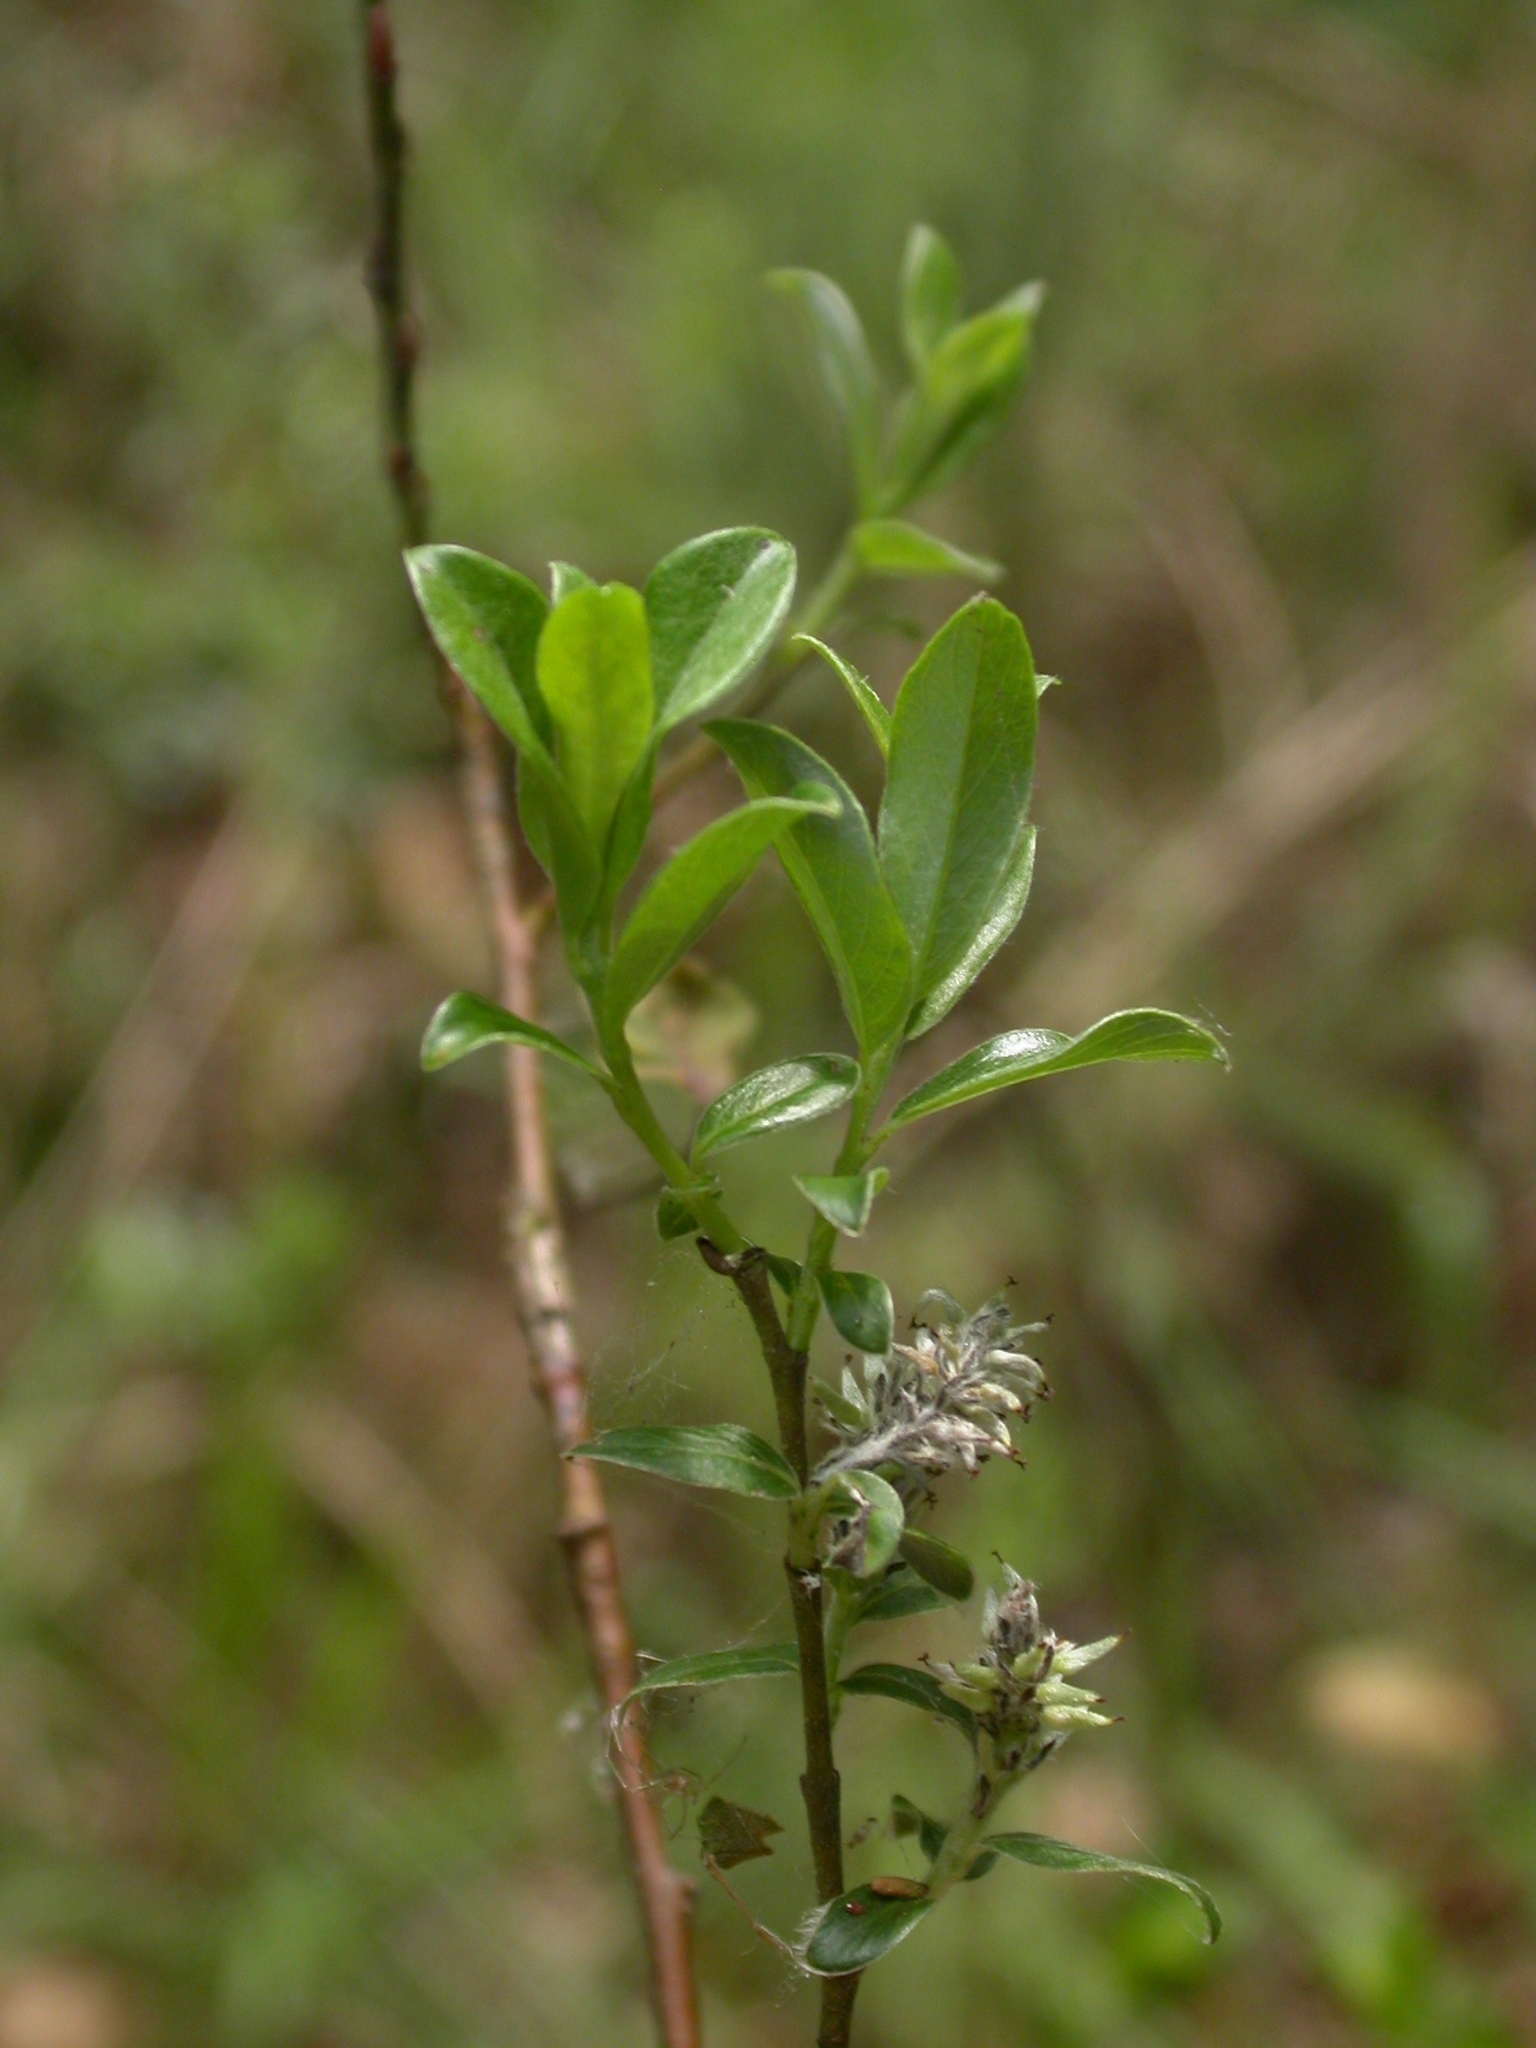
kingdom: Plantae
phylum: Tracheophyta
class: Magnoliopsida
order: Malpighiales
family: Salicaceae
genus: Salix
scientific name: Salix repens
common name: Creeping willow
